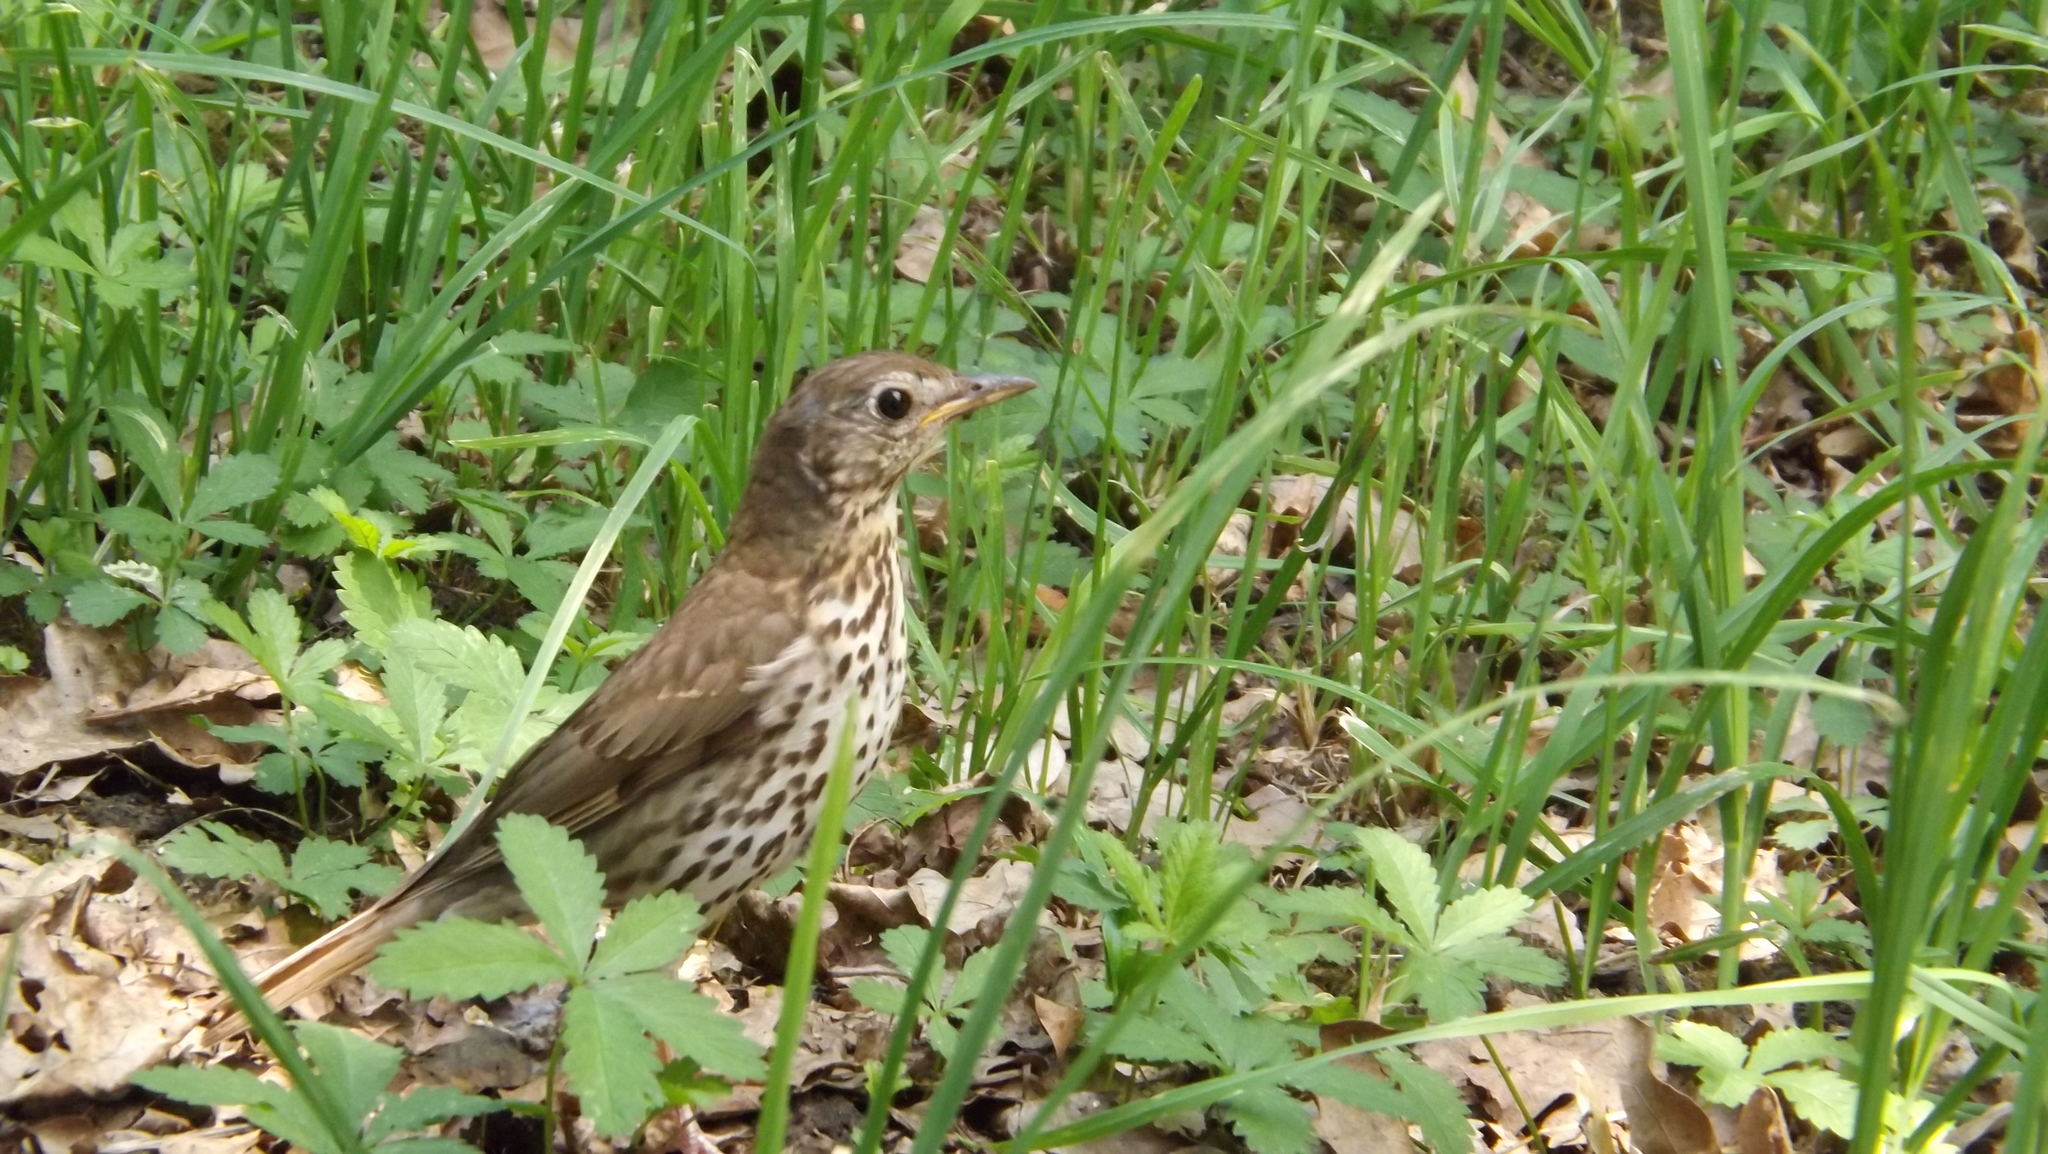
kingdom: Animalia
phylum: Chordata
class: Aves
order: Passeriformes
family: Turdidae
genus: Turdus
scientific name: Turdus philomelos
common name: Song thrush
